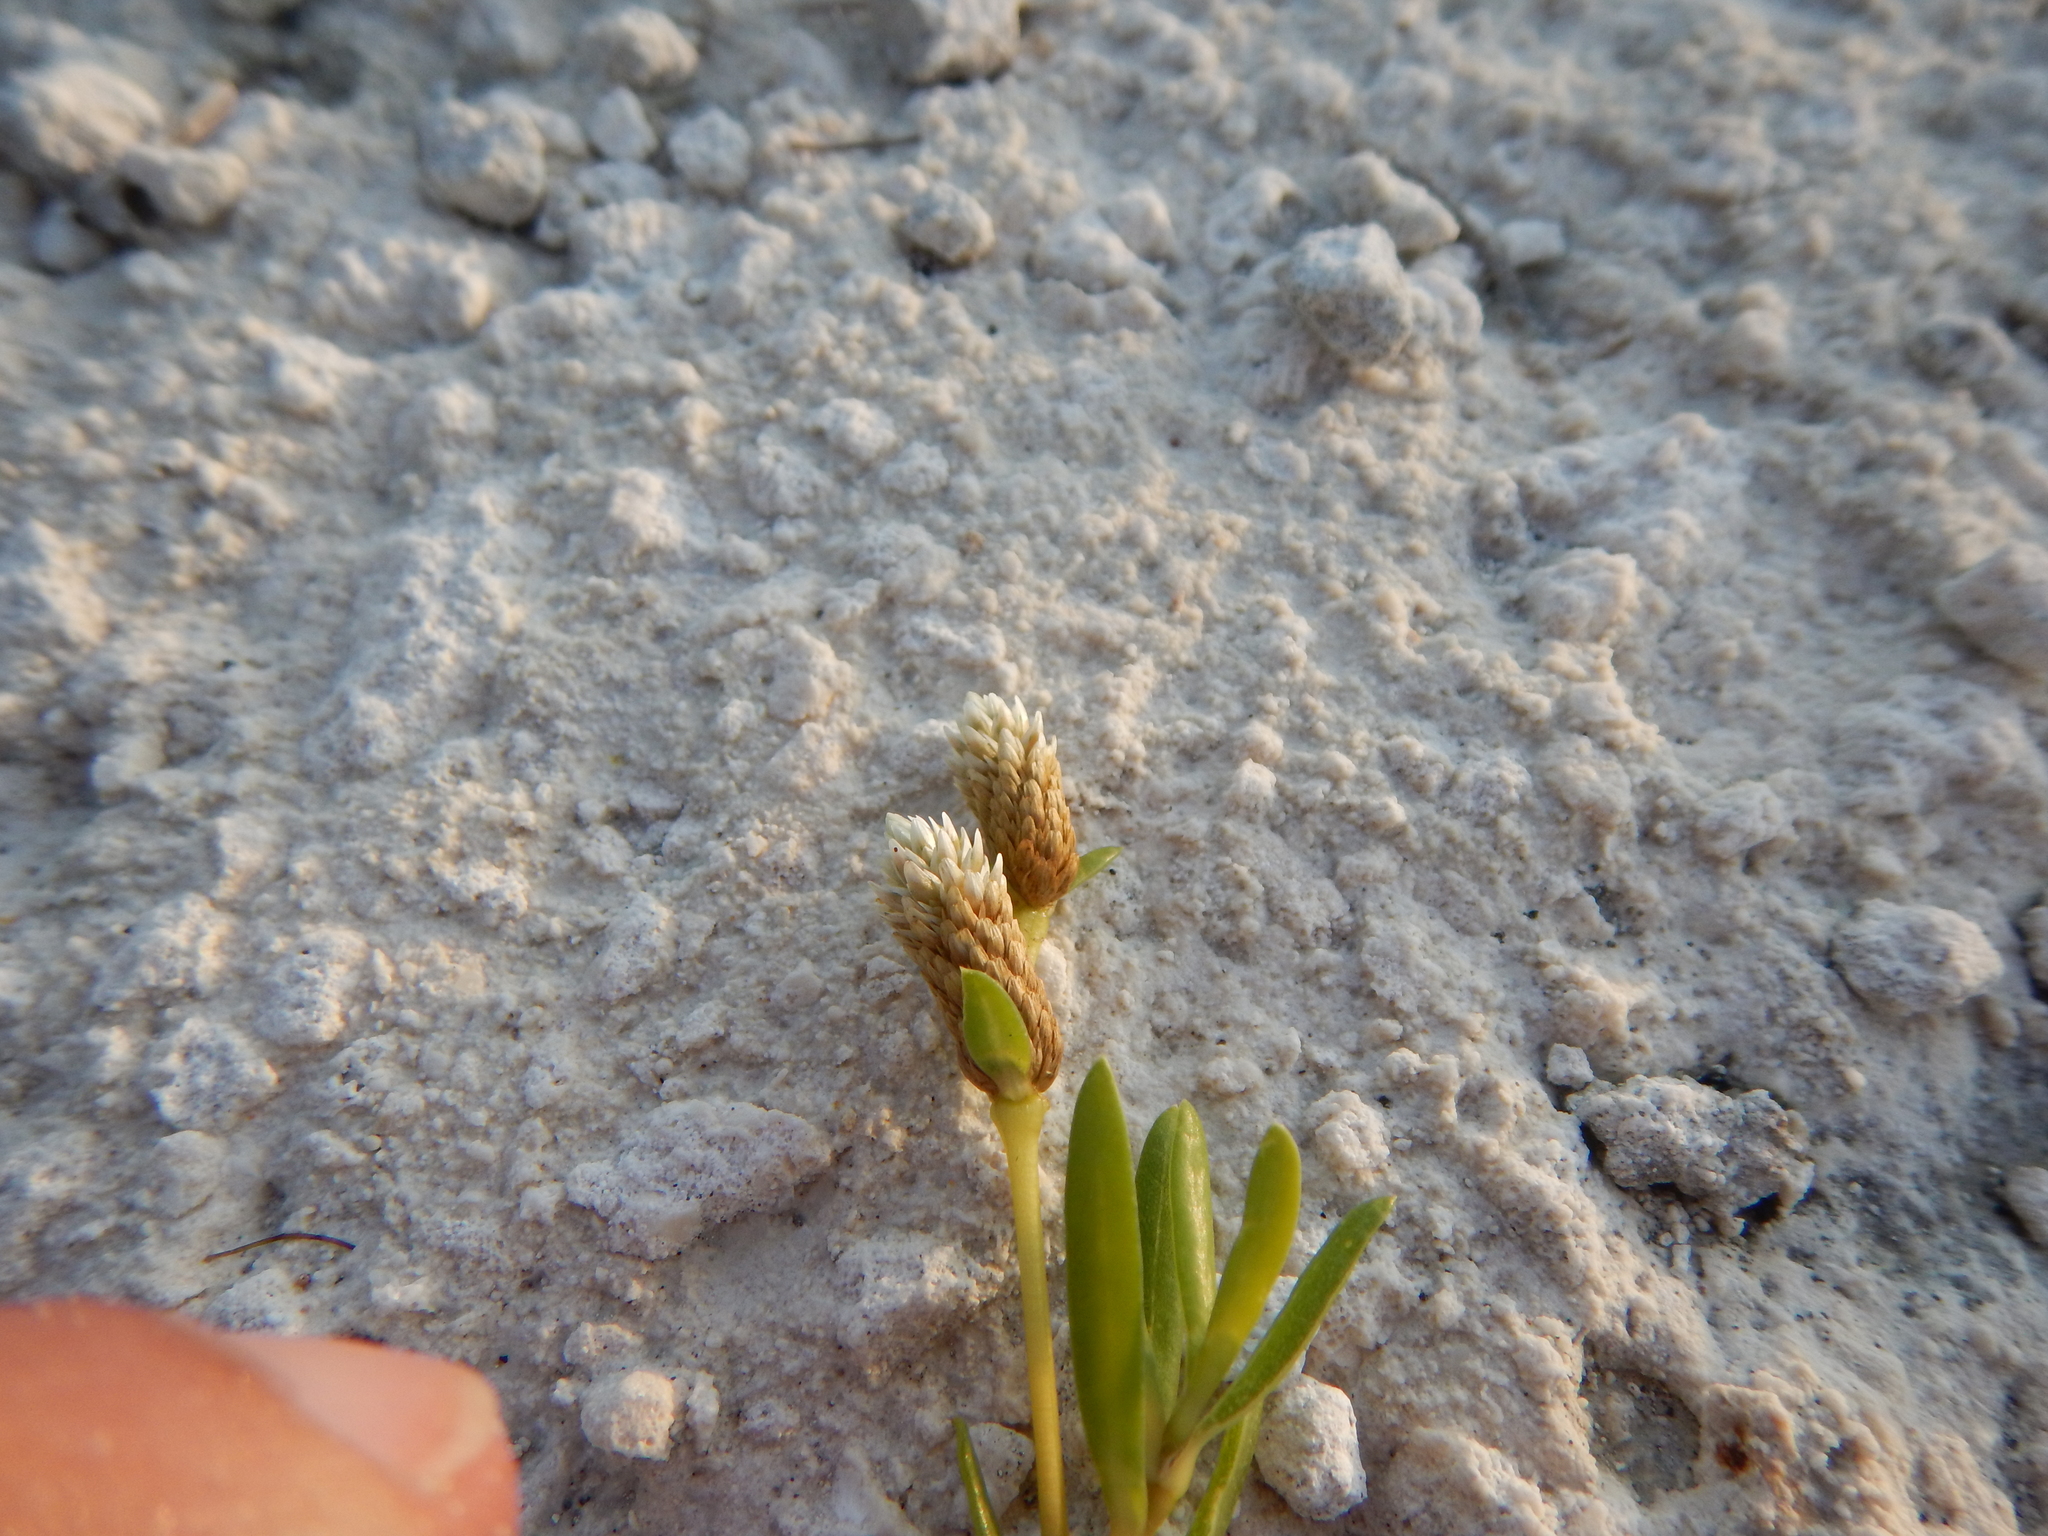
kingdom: Plantae
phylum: Tracheophyta
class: Magnoliopsida
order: Caryophyllales
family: Amaranthaceae
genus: Gomphrena
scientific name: Gomphrena vermicularis
